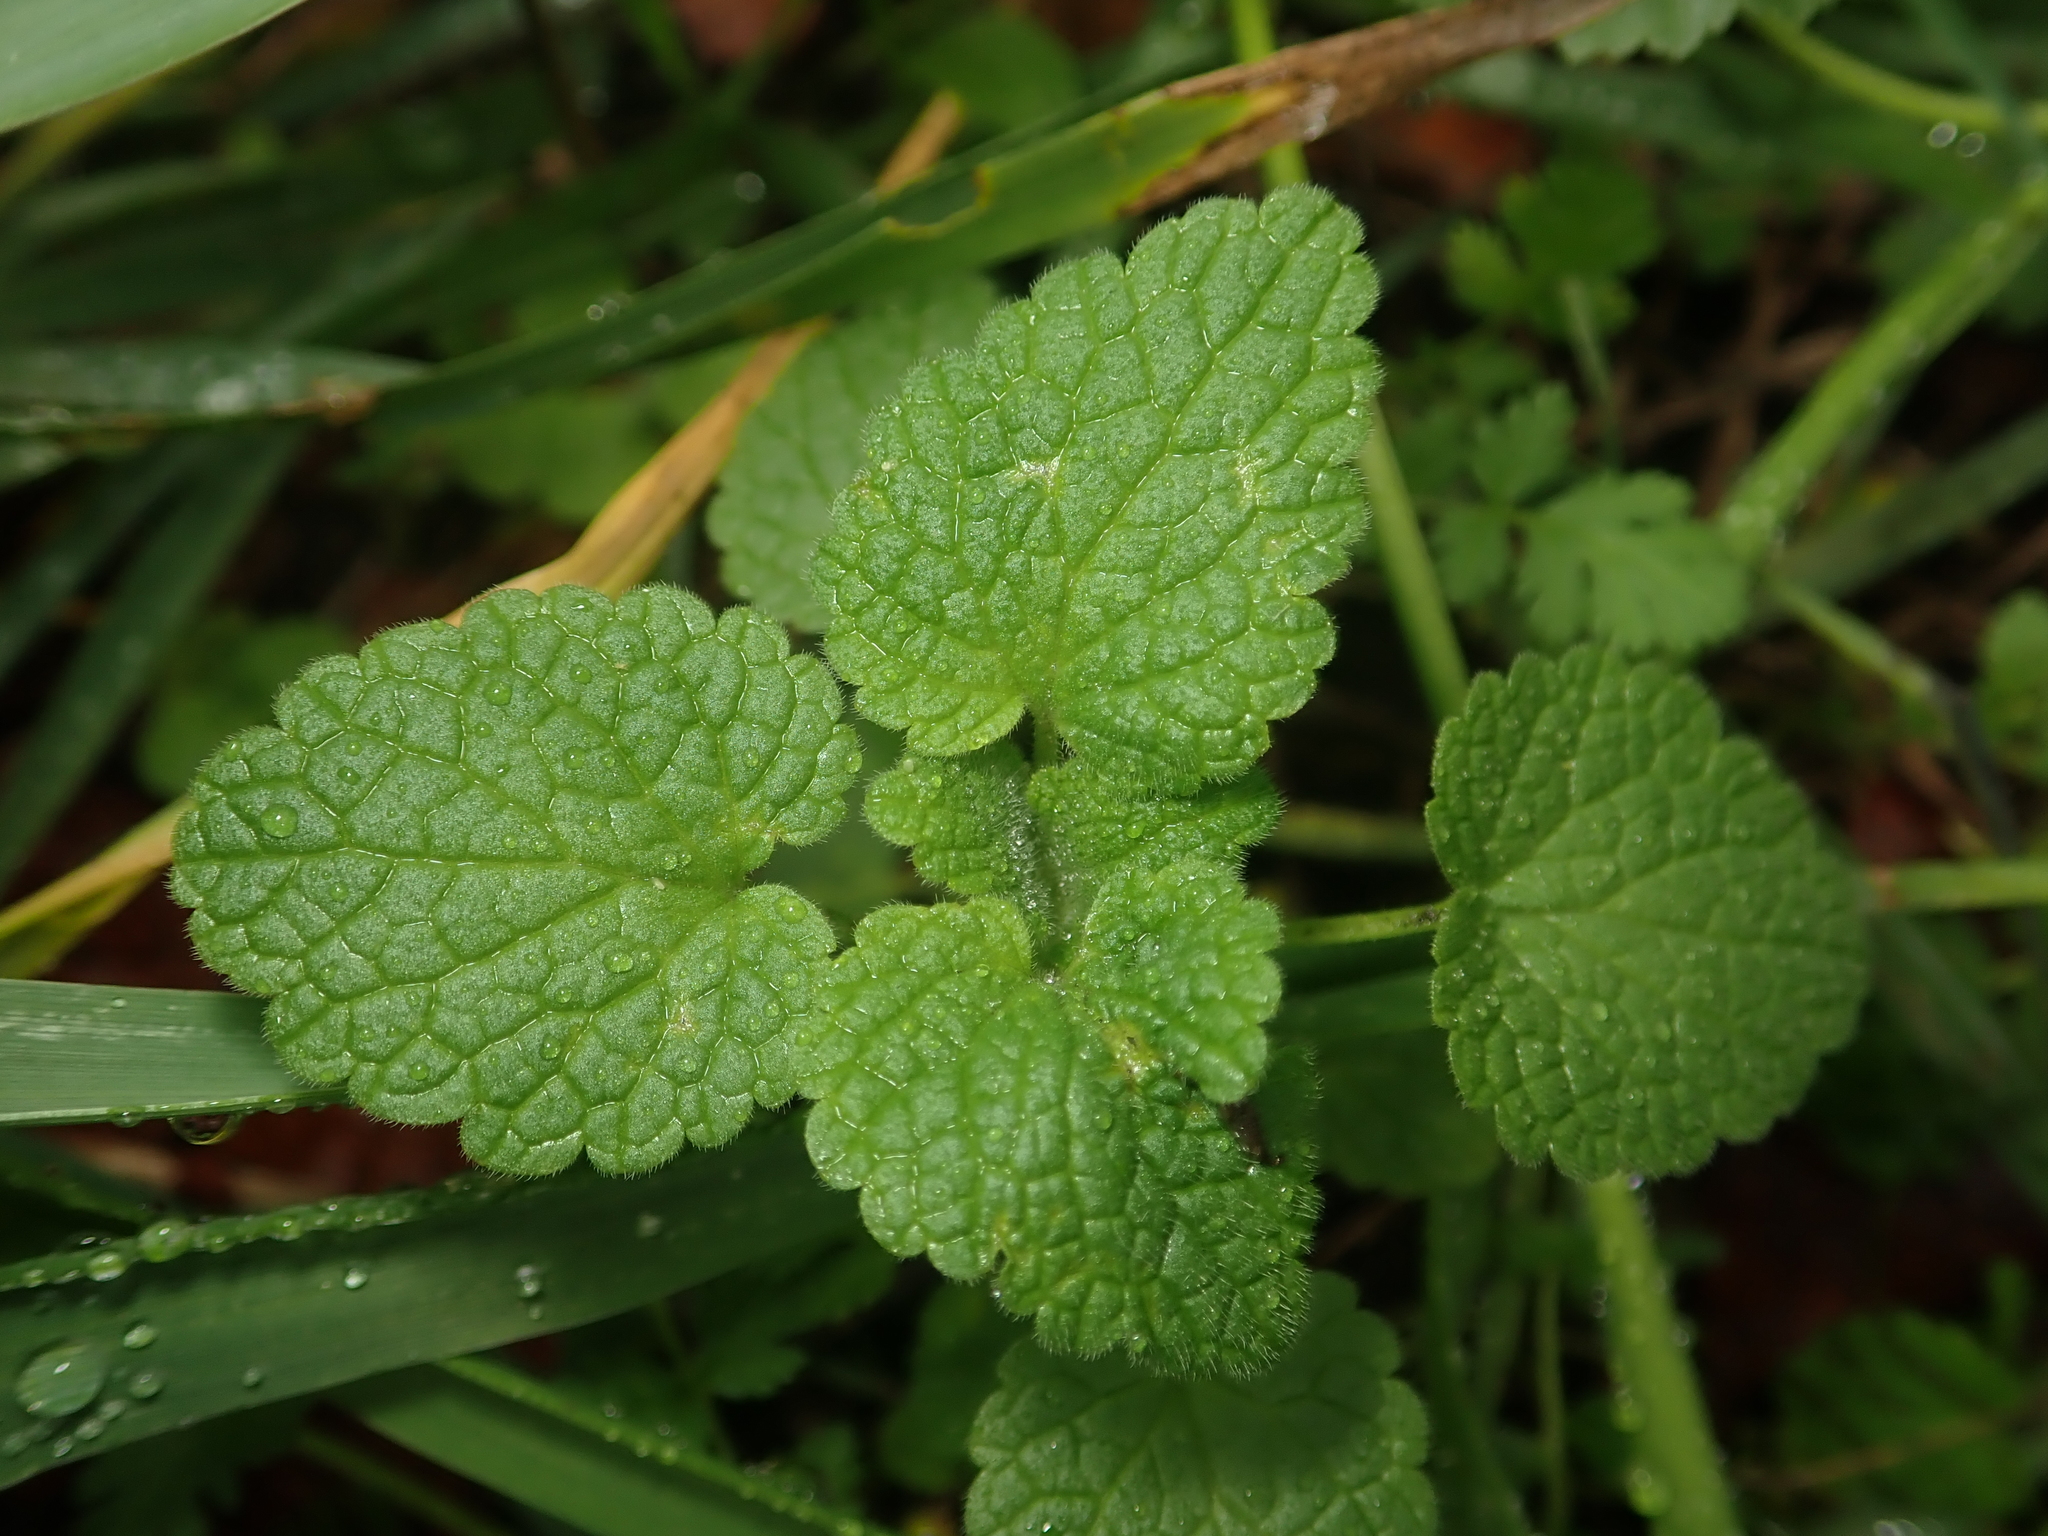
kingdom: Plantae
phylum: Tracheophyta
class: Magnoliopsida
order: Lamiales
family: Lamiaceae
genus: Lamium
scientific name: Lamium purpureum
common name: Red dead-nettle
